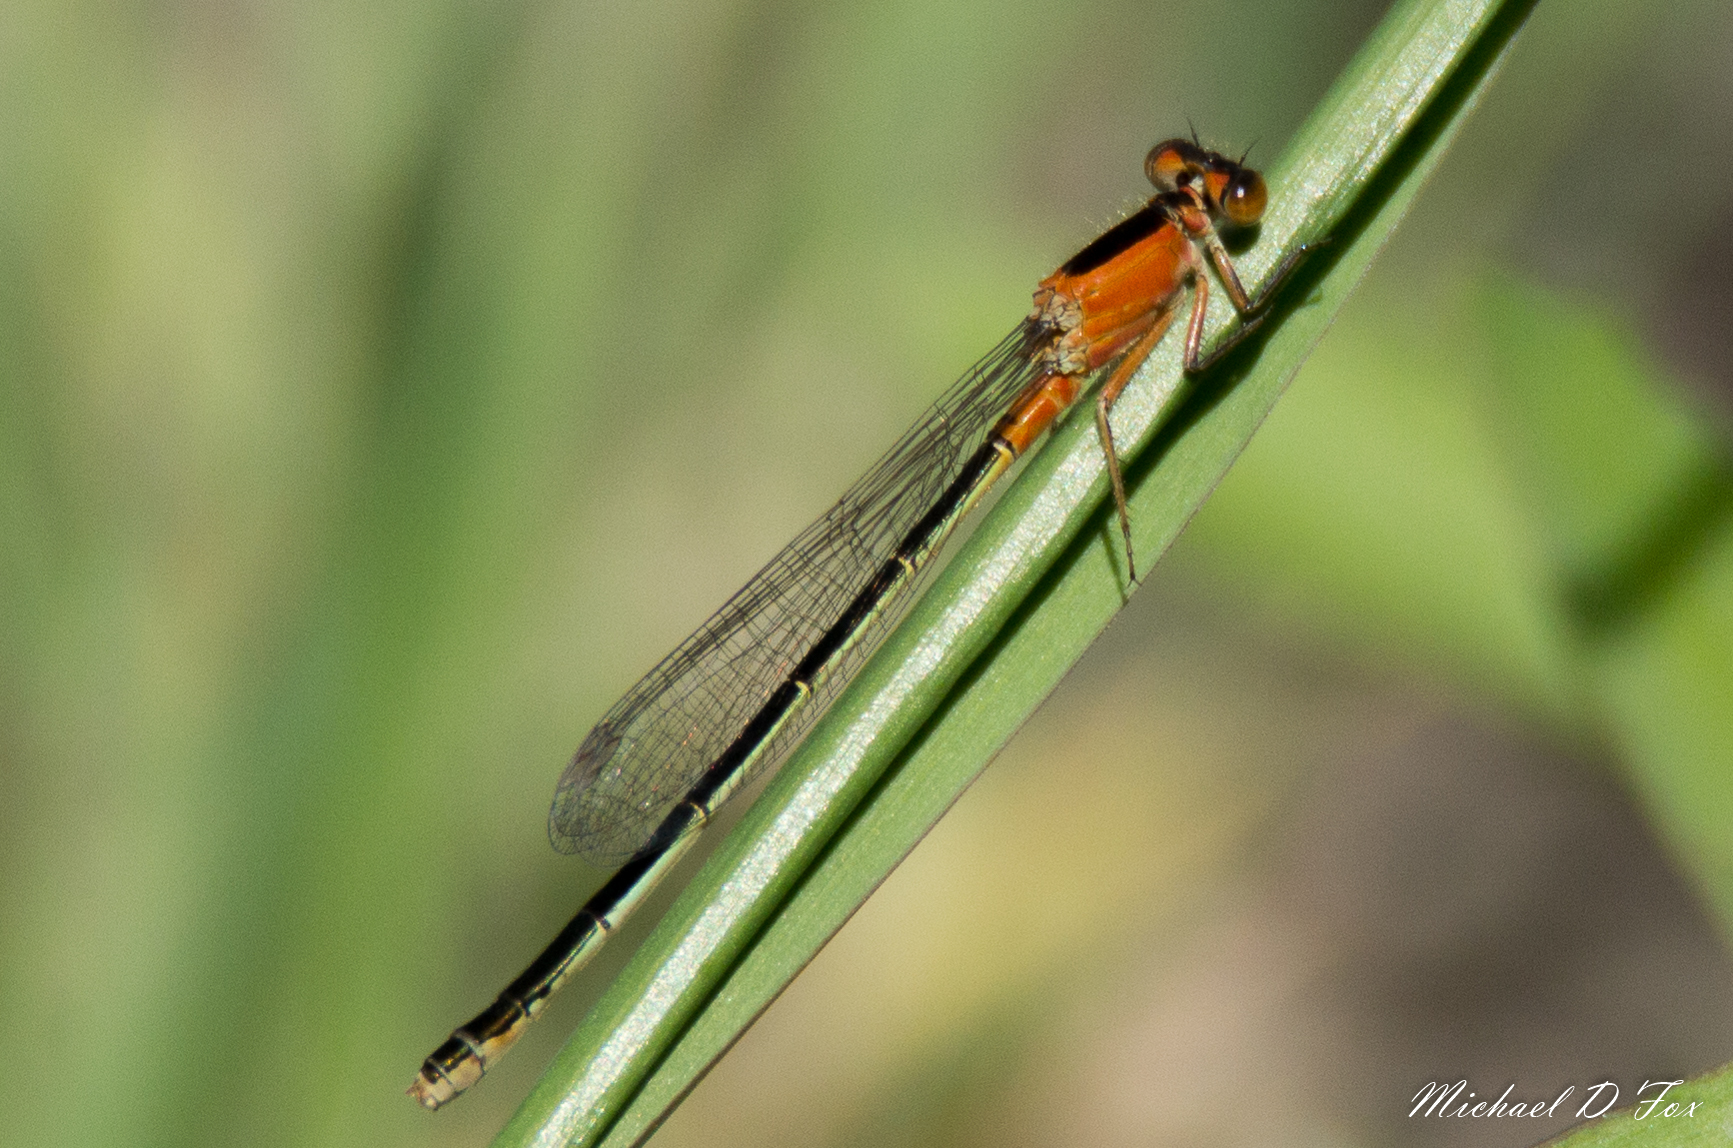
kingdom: Animalia
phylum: Arthropoda
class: Insecta
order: Odonata
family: Coenagrionidae
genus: Ischnura
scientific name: Ischnura ramburii
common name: Rambur's forktail
